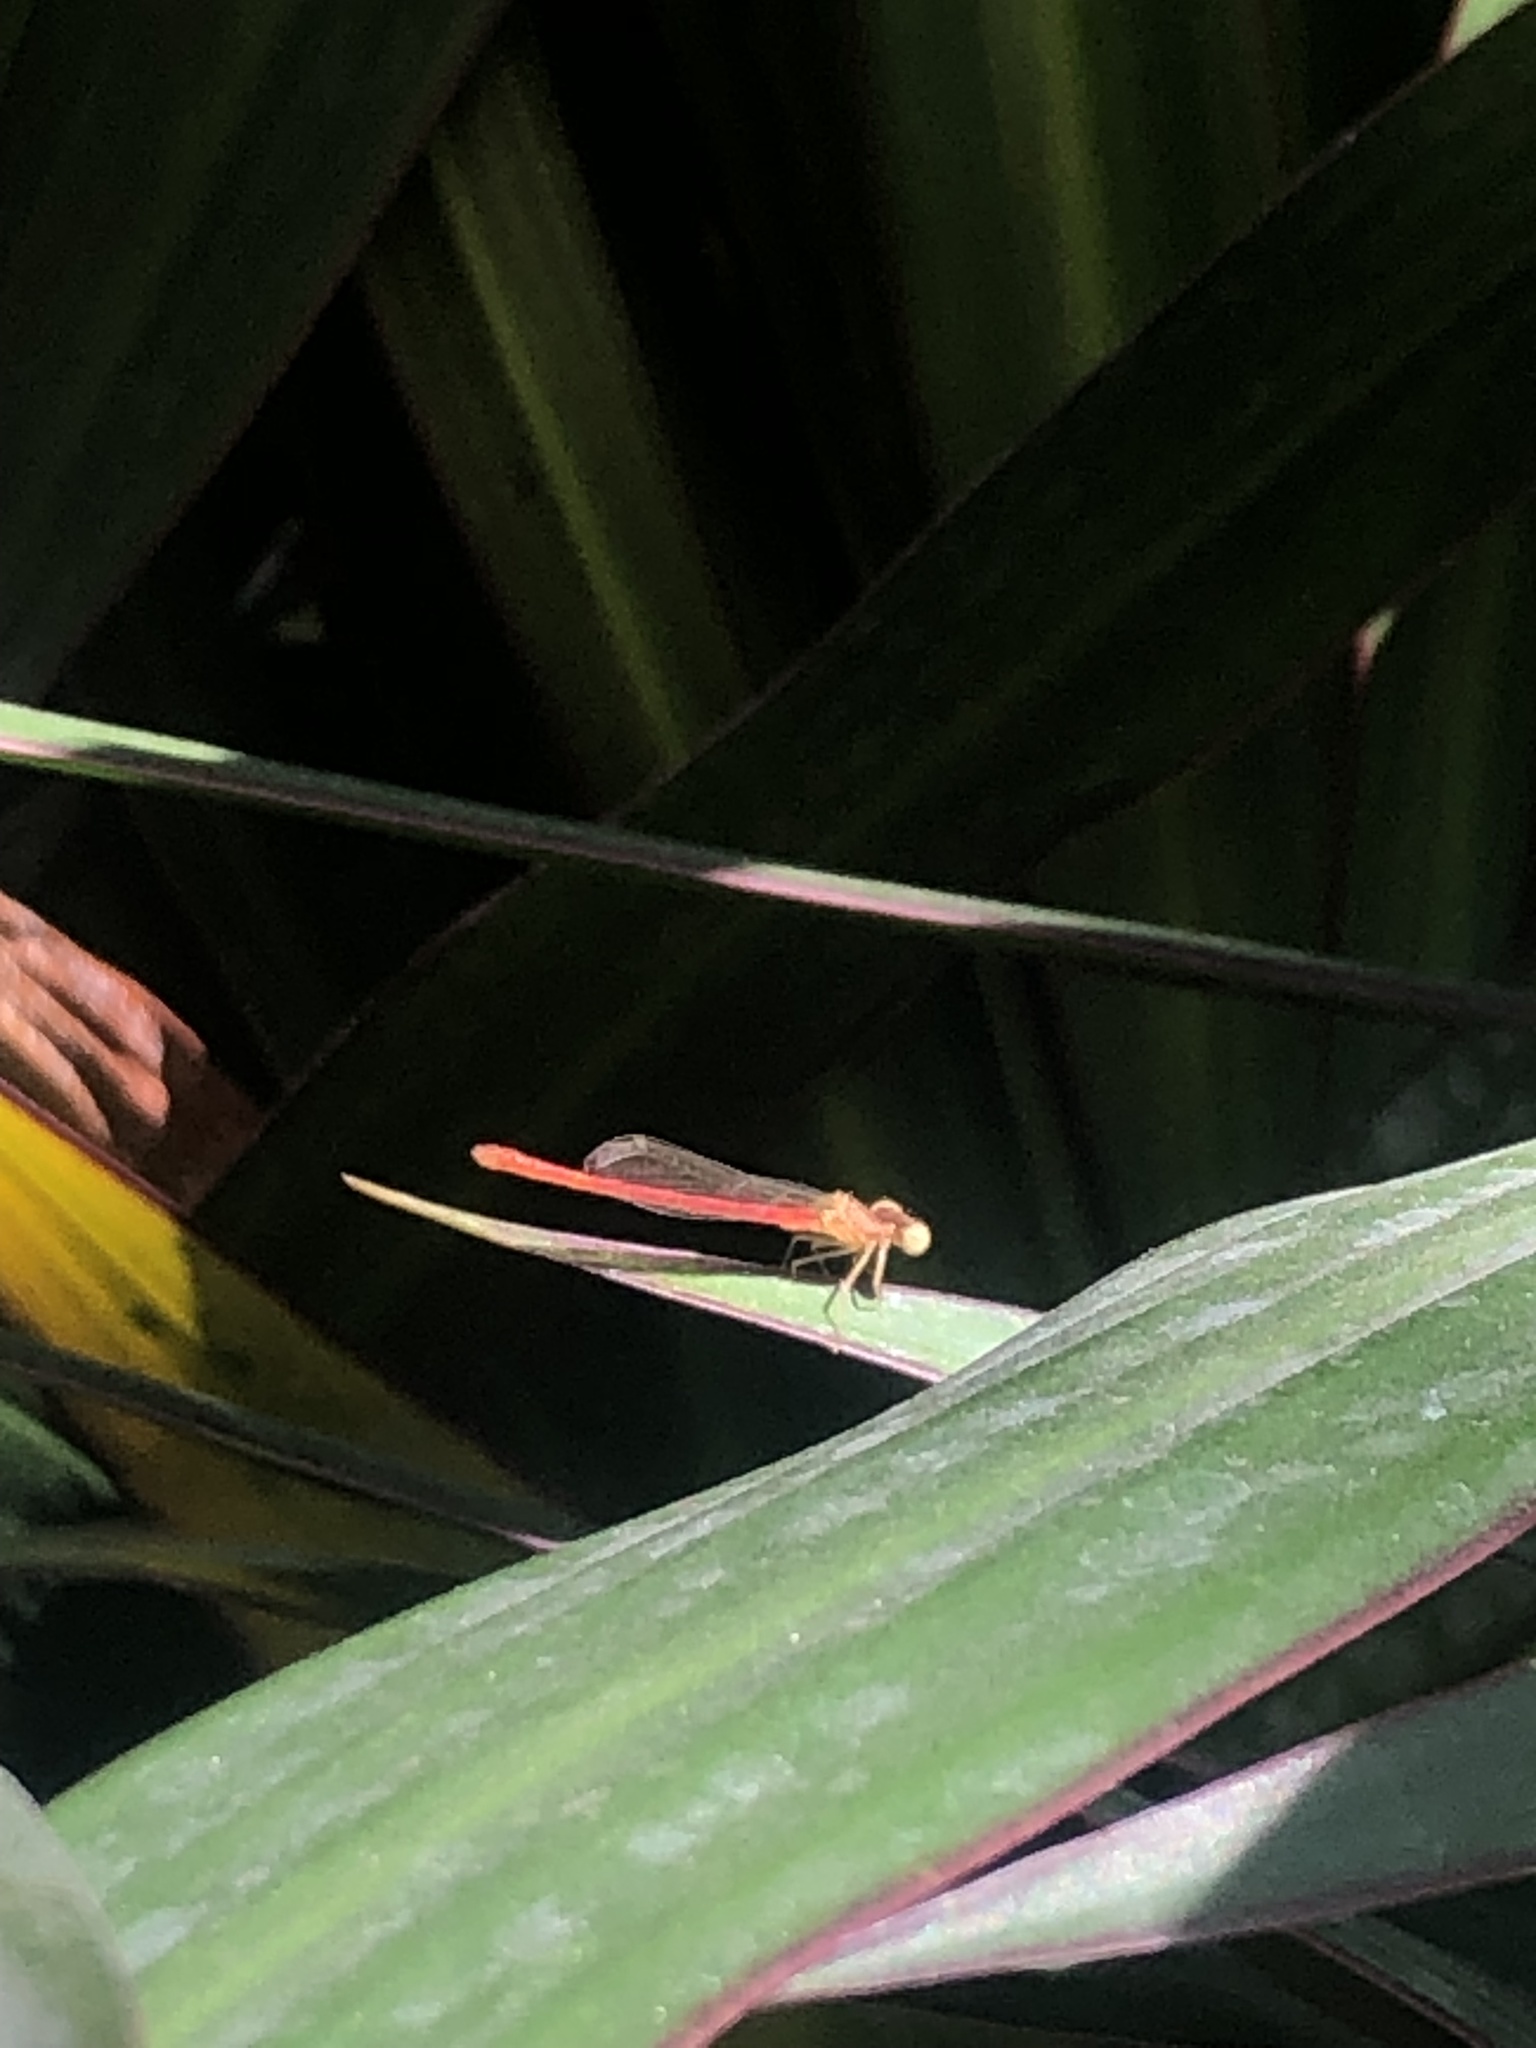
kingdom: Animalia
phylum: Arthropoda
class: Insecta
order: Odonata
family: Coenagrionidae
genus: Telebasis
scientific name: Telebasis salva
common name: Desert firetail
